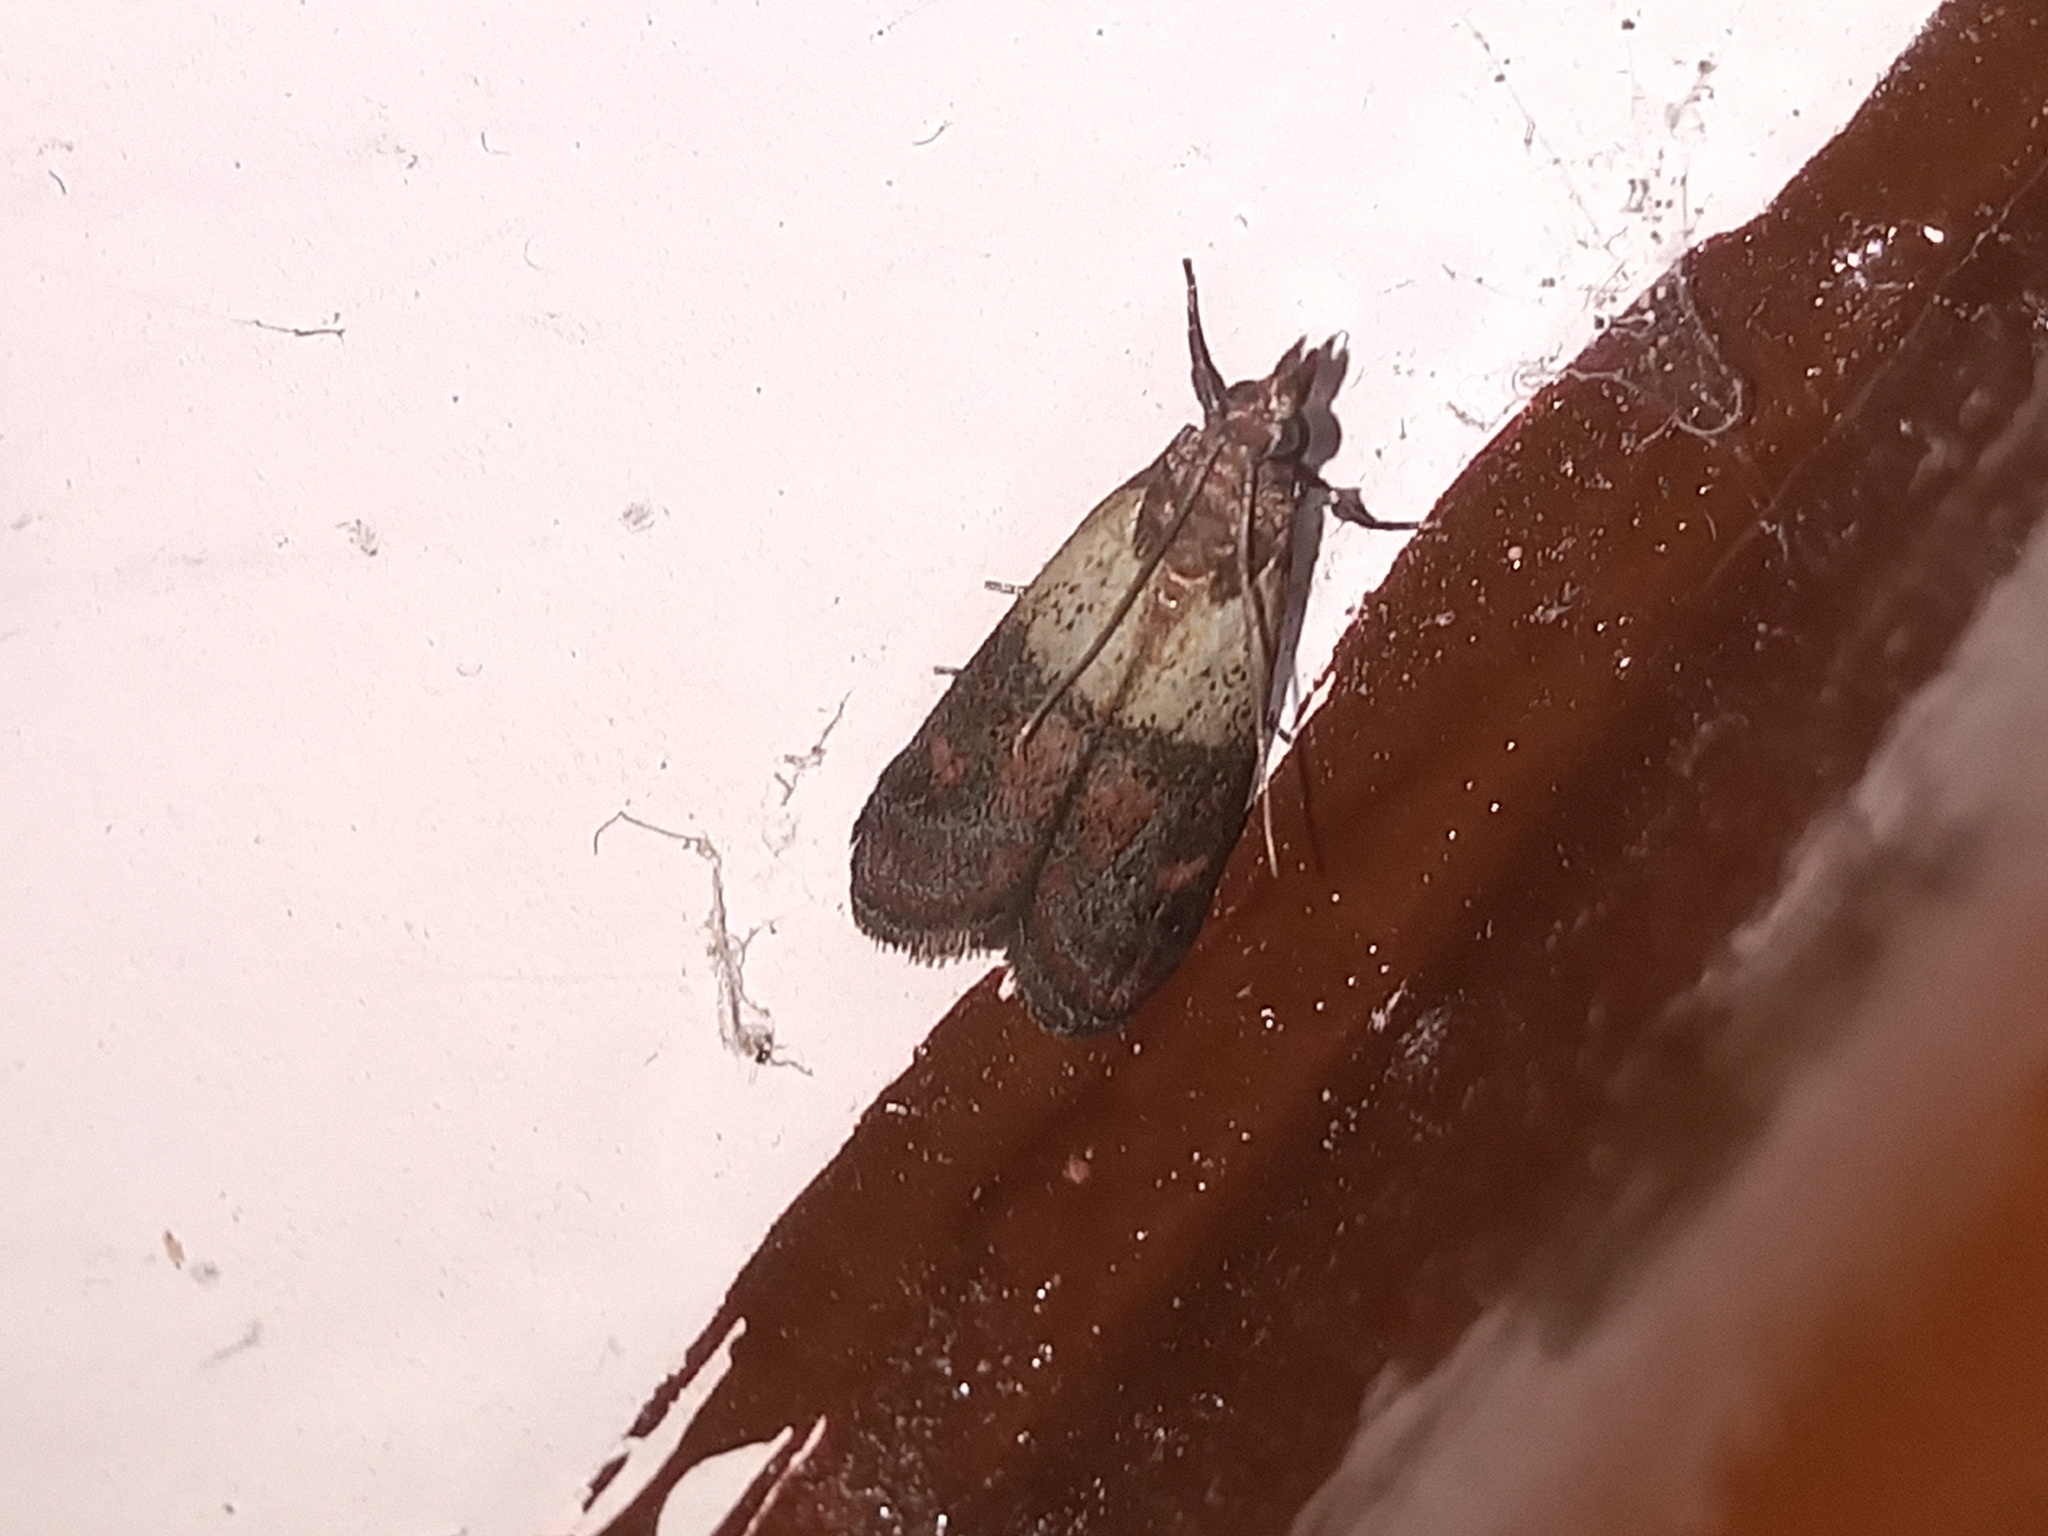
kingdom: Animalia
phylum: Arthropoda
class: Insecta
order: Lepidoptera
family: Pyralidae
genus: Plodia
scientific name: Plodia interpunctella
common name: Indian meal moth
